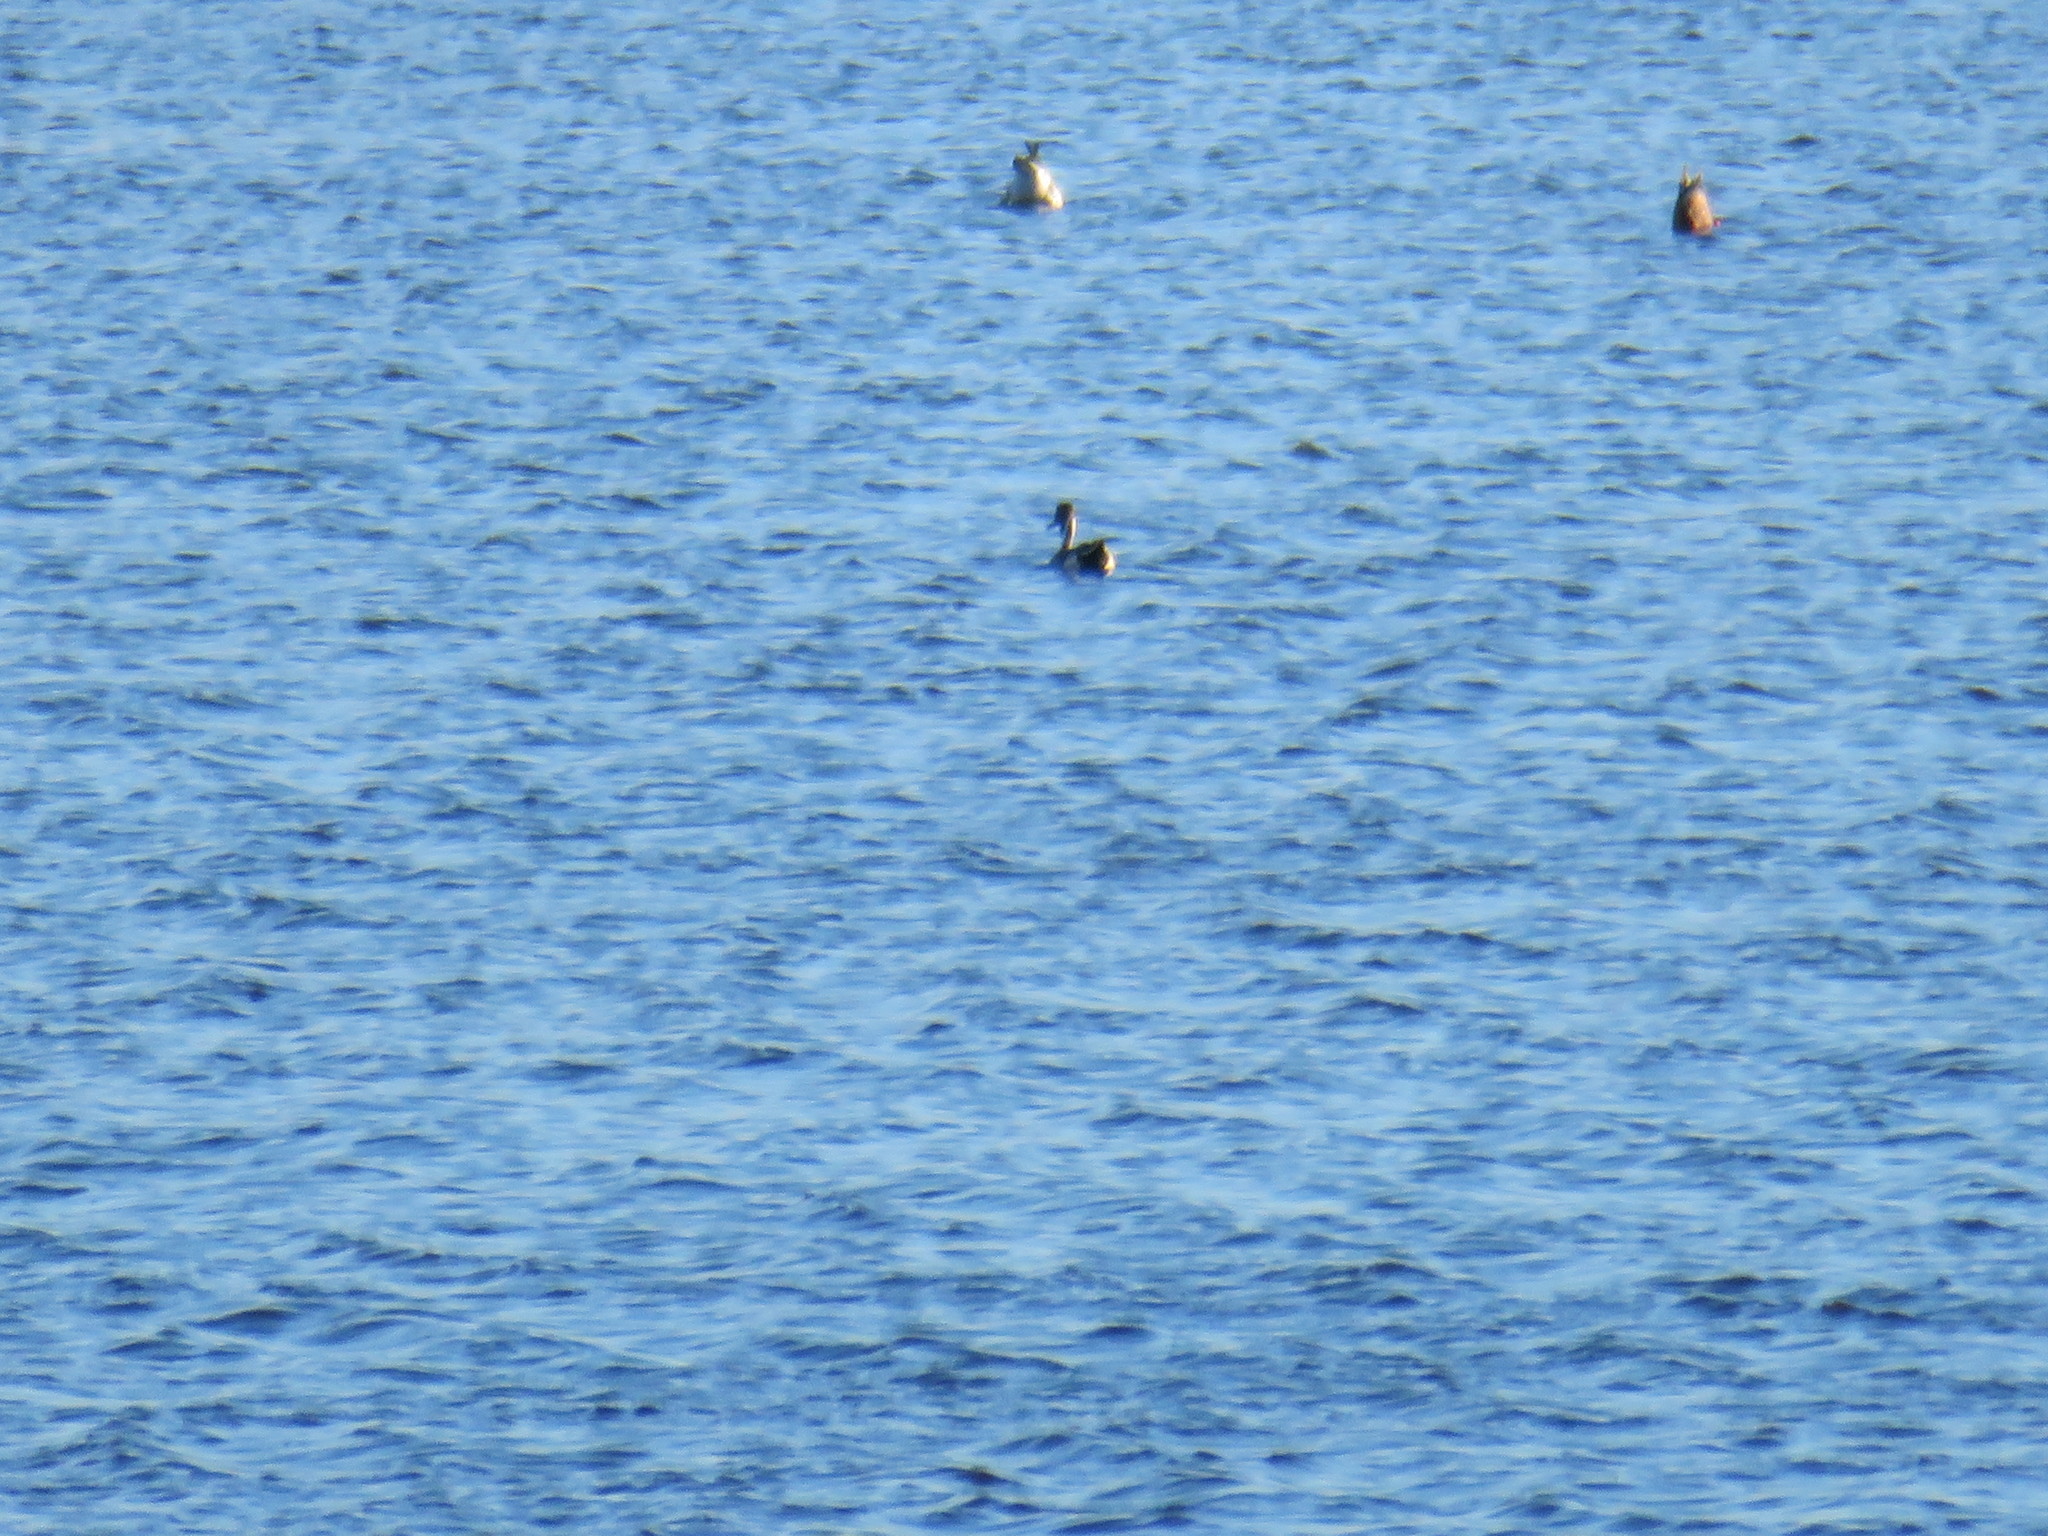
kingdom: Animalia
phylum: Chordata
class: Aves
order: Anseriformes
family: Anatidae
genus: Anas
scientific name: Anas acuta
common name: Northern pintail
